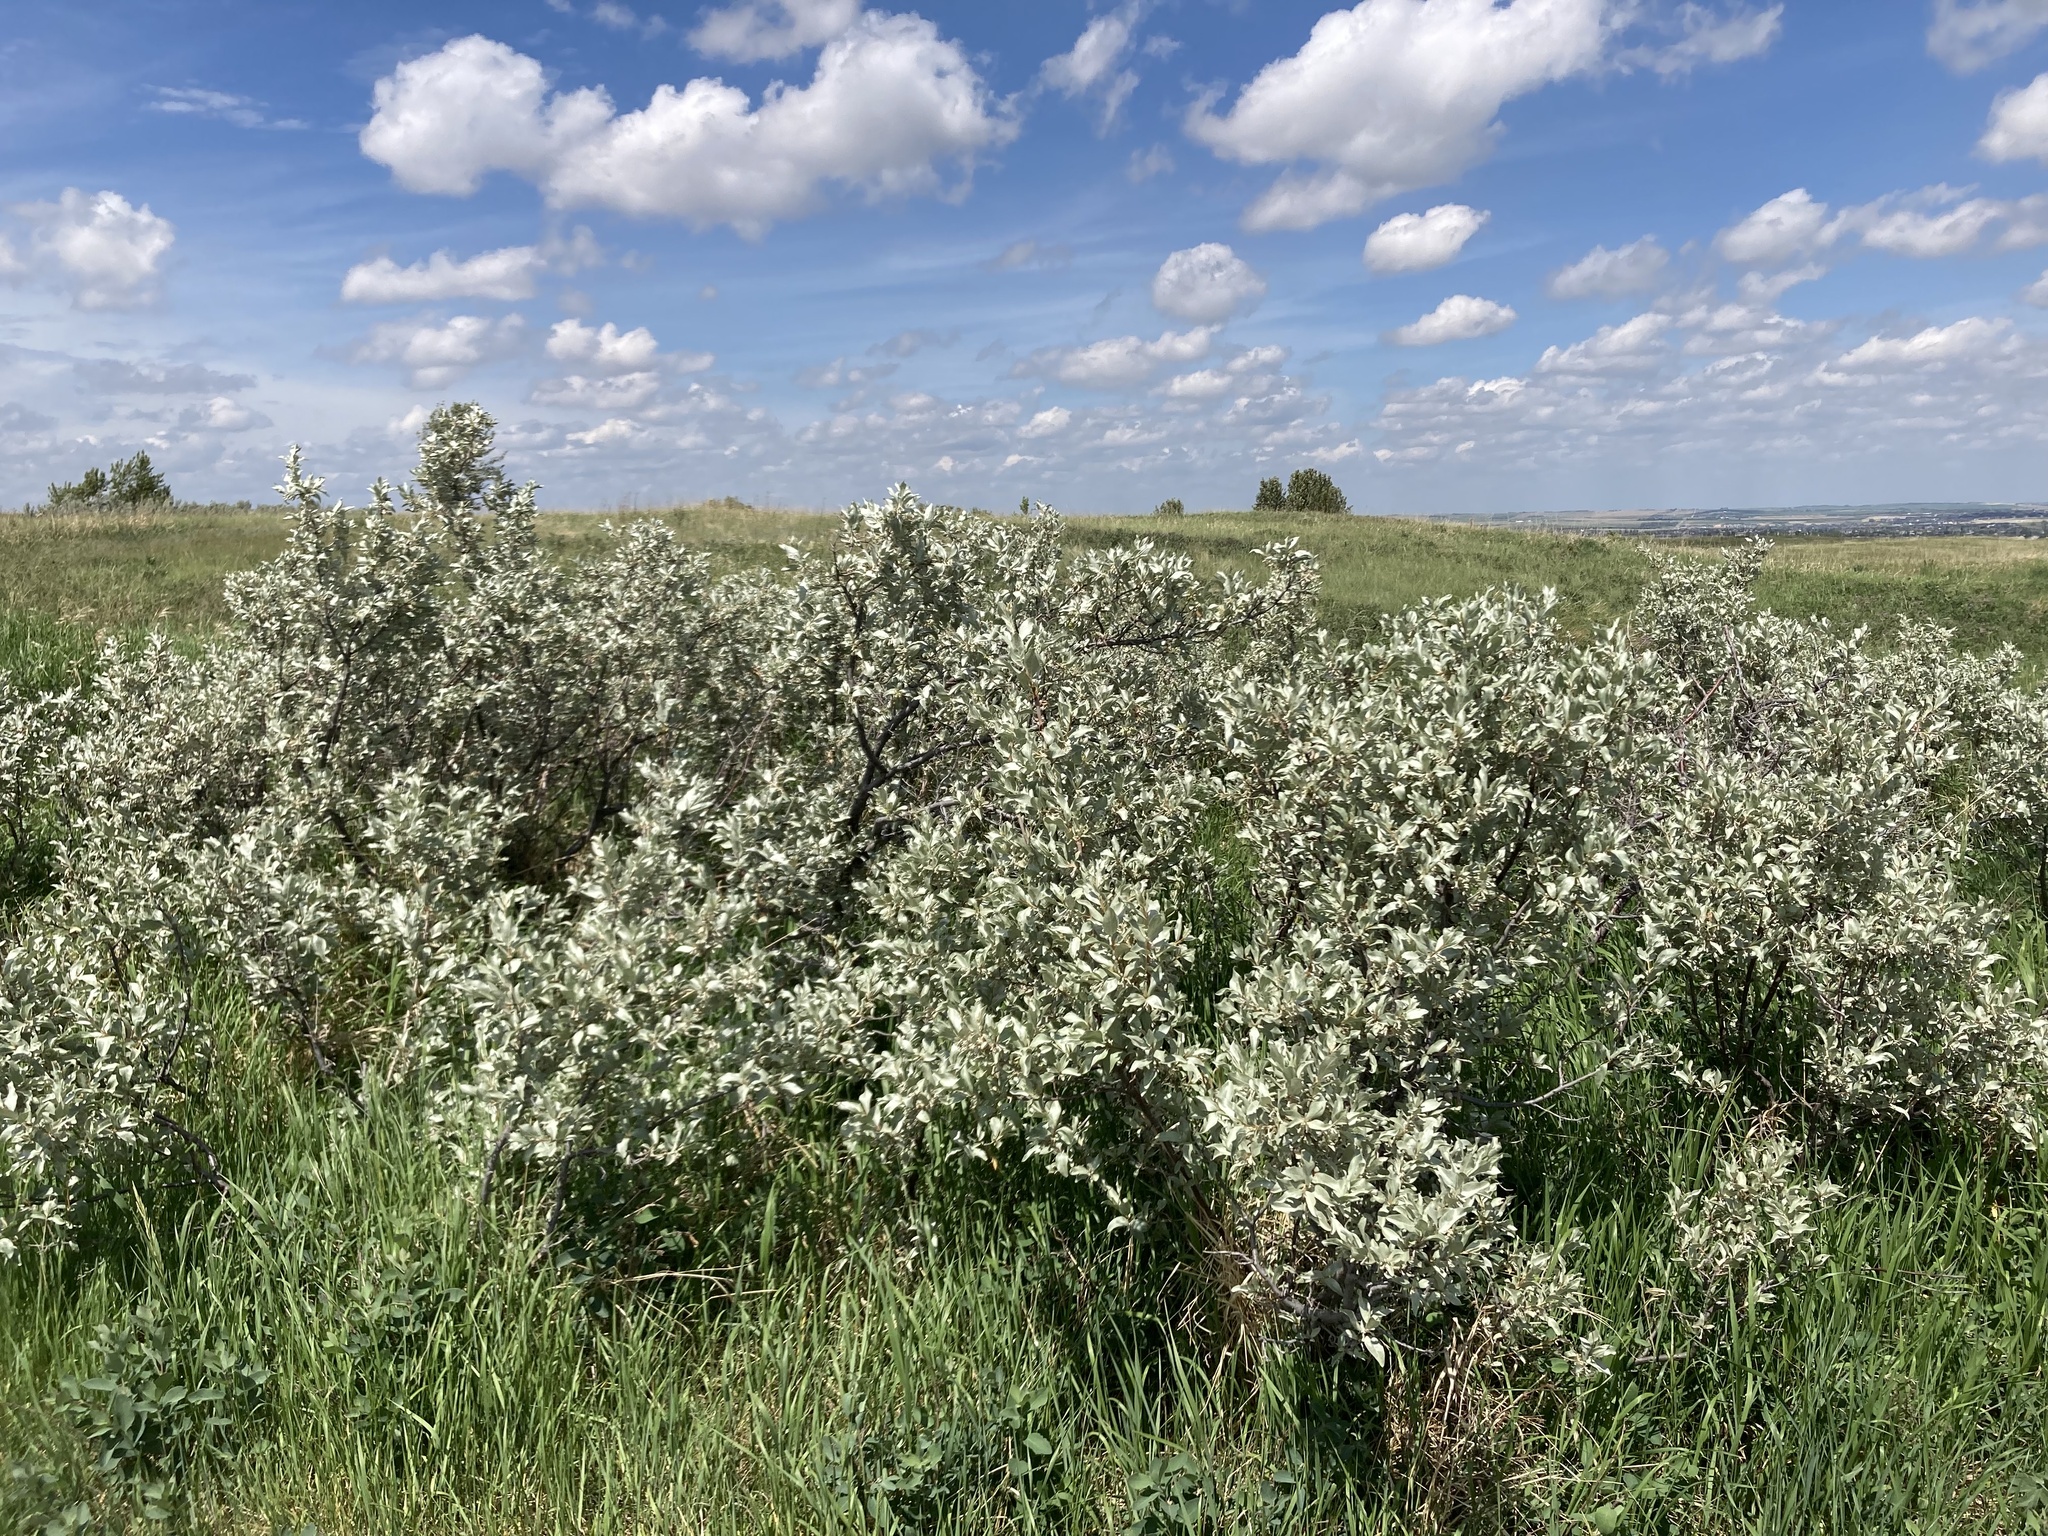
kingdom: Plantae
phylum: Tracheophyta
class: Magnoliopsida
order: Rosales
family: Elaeagnaceae
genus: Elaeagnus
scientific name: Elaeagnus commutata
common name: Silverberry
